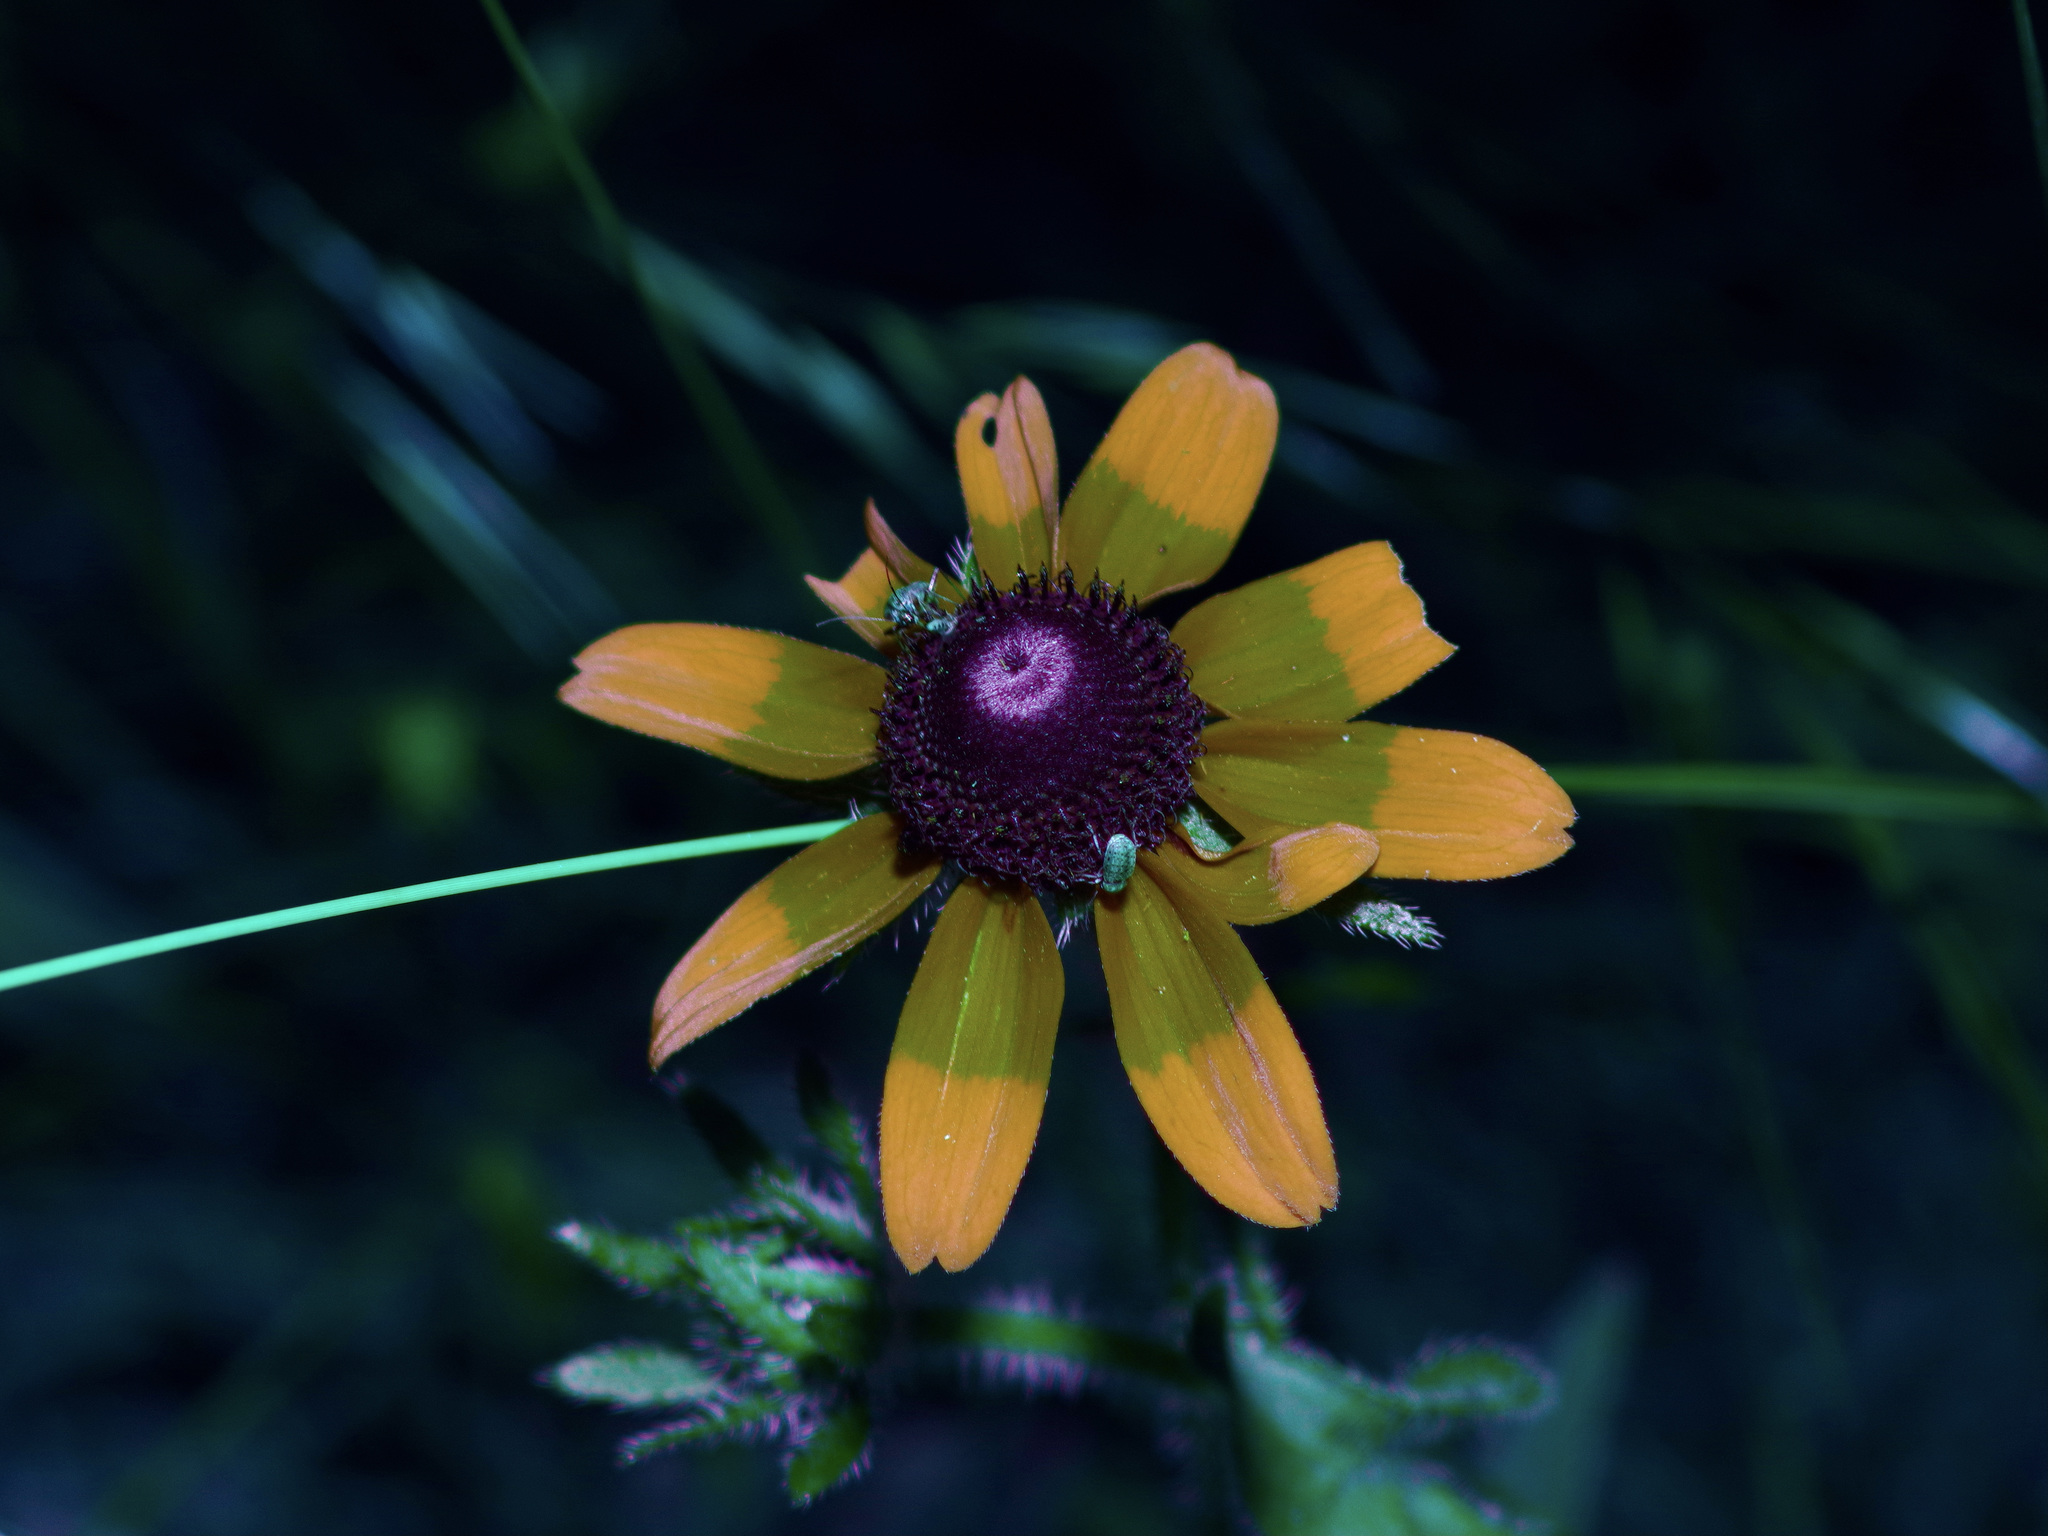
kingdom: Plantae
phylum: Tracheophyta
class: Magnoliopsida
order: Asterales
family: Asteraceae
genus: Rudbeckia
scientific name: Rudbeckia hirta
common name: Black-eyed-susan
